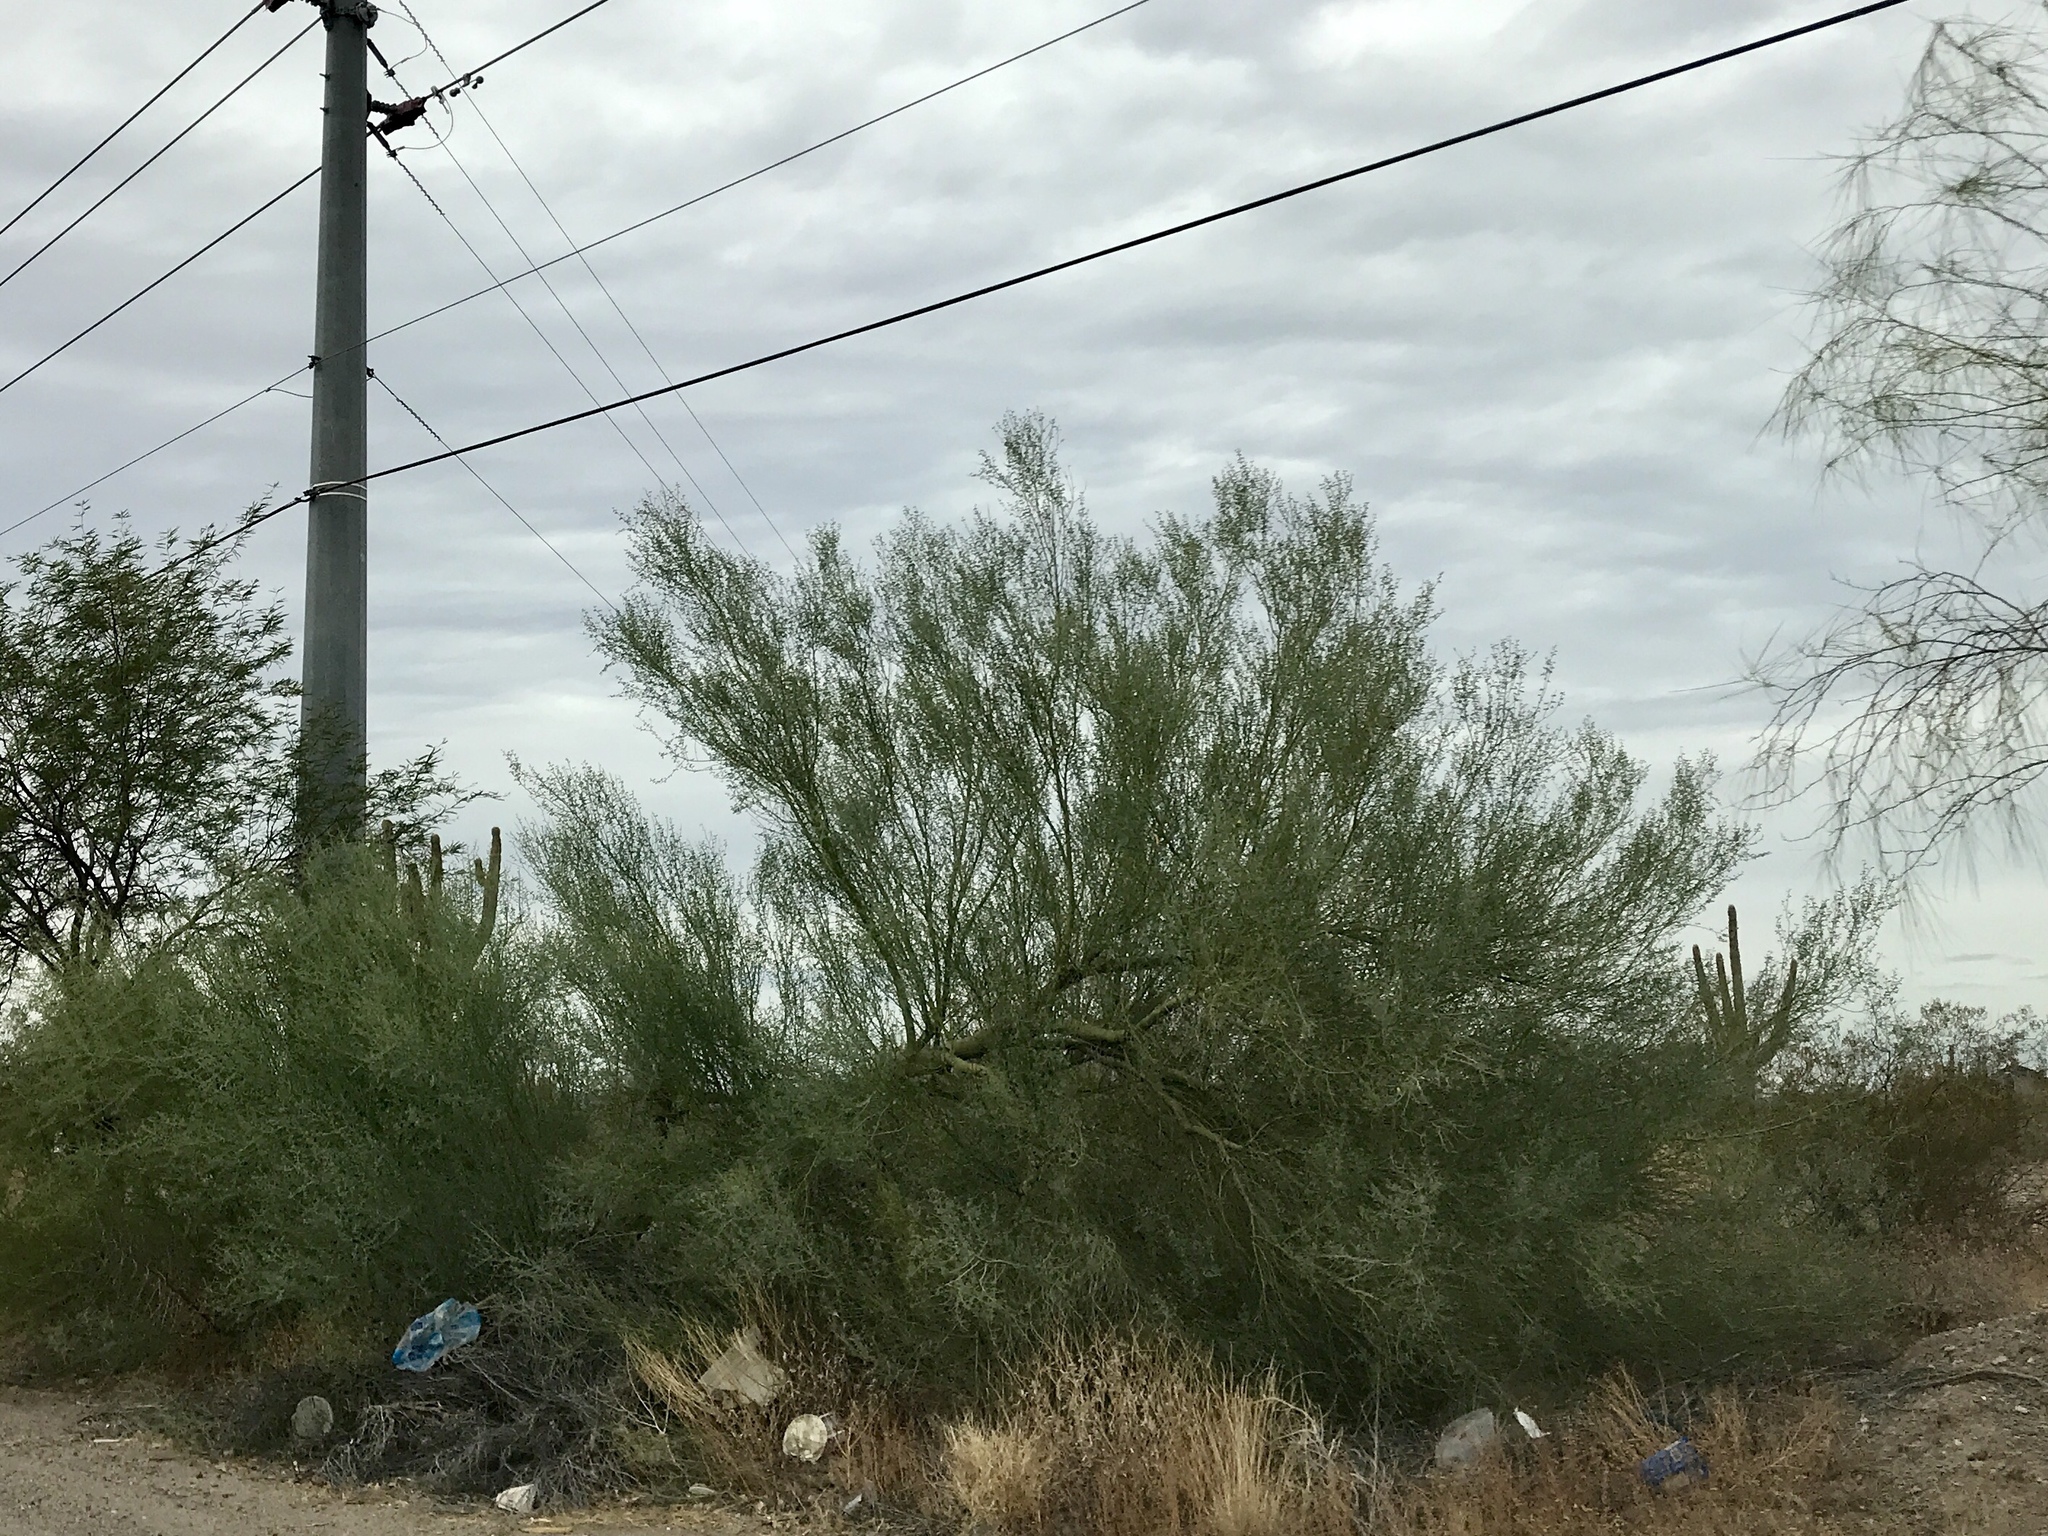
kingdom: Plantae
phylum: Tracheophyta
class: Magnoliopsida
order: Fabales
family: Fabaceae
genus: Parkinsonia
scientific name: Parkinsonia florida
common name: Blue paloverde
